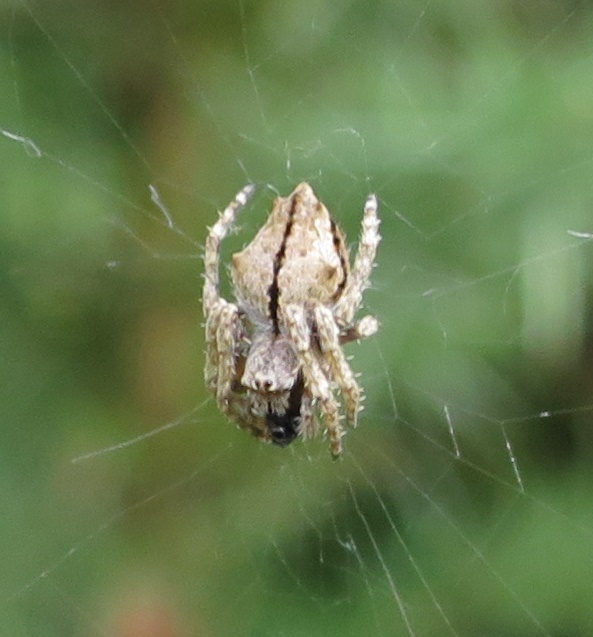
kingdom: Animalia
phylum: Arthropoda
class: Arachnida
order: Araneae
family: Araneidae
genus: Eriophora
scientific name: Eriophora pustulosa
